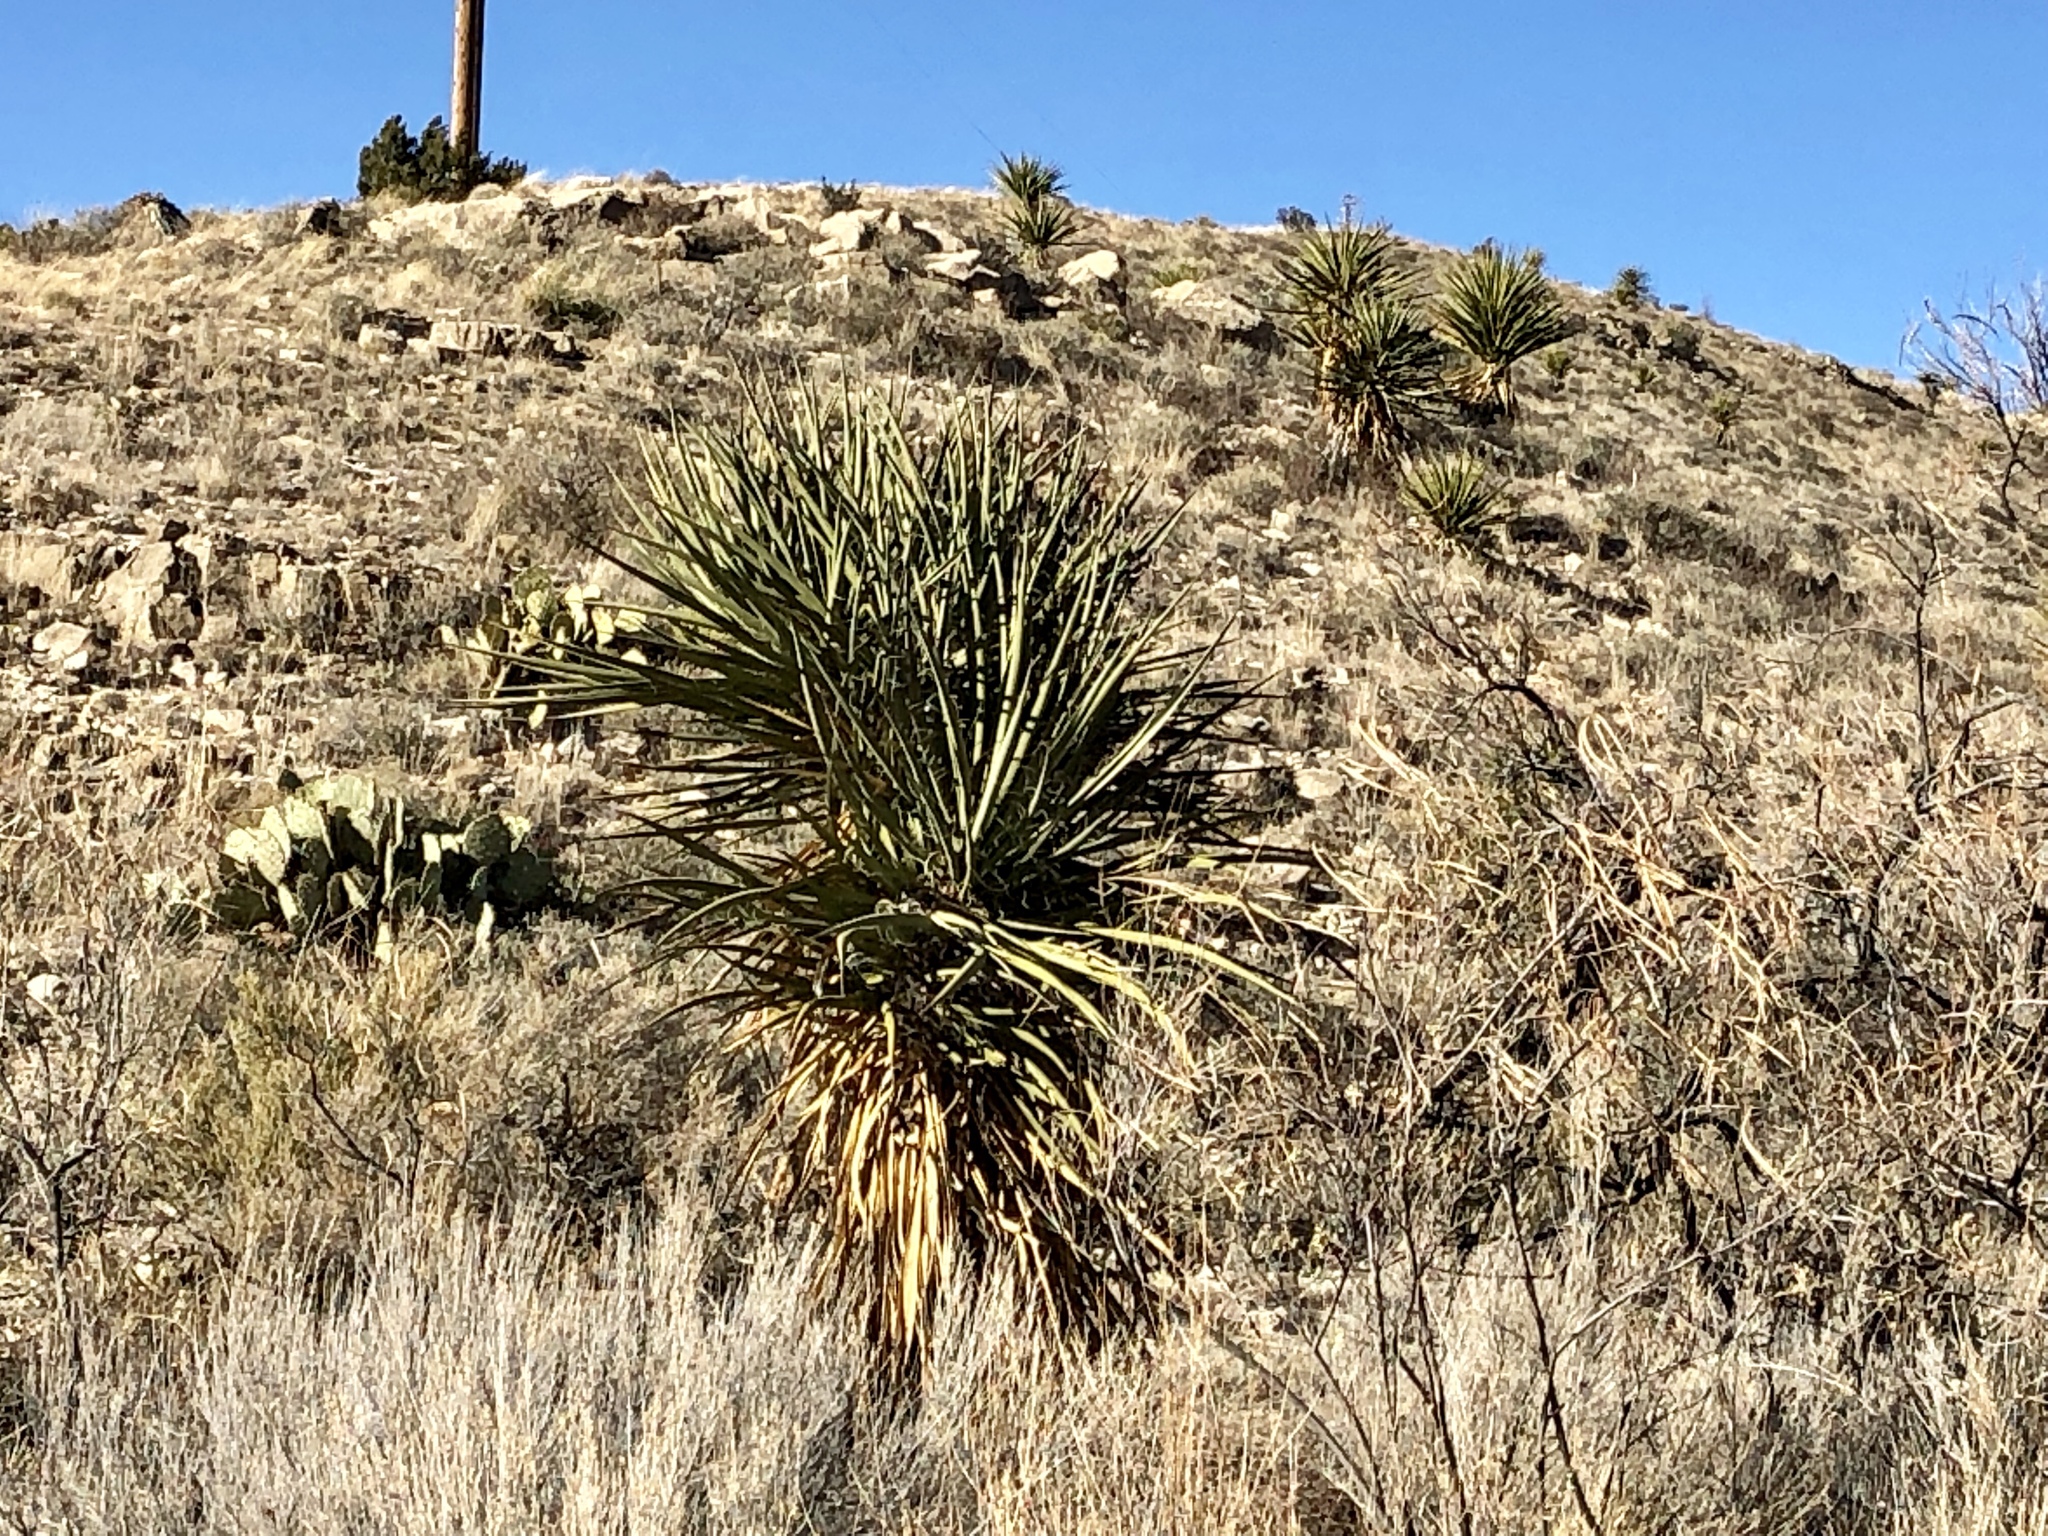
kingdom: Plantae
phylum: Tracheophyta
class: Liliopsida
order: Asparagales
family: Asparagaceae
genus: Yucca
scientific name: Yucca treculiana
